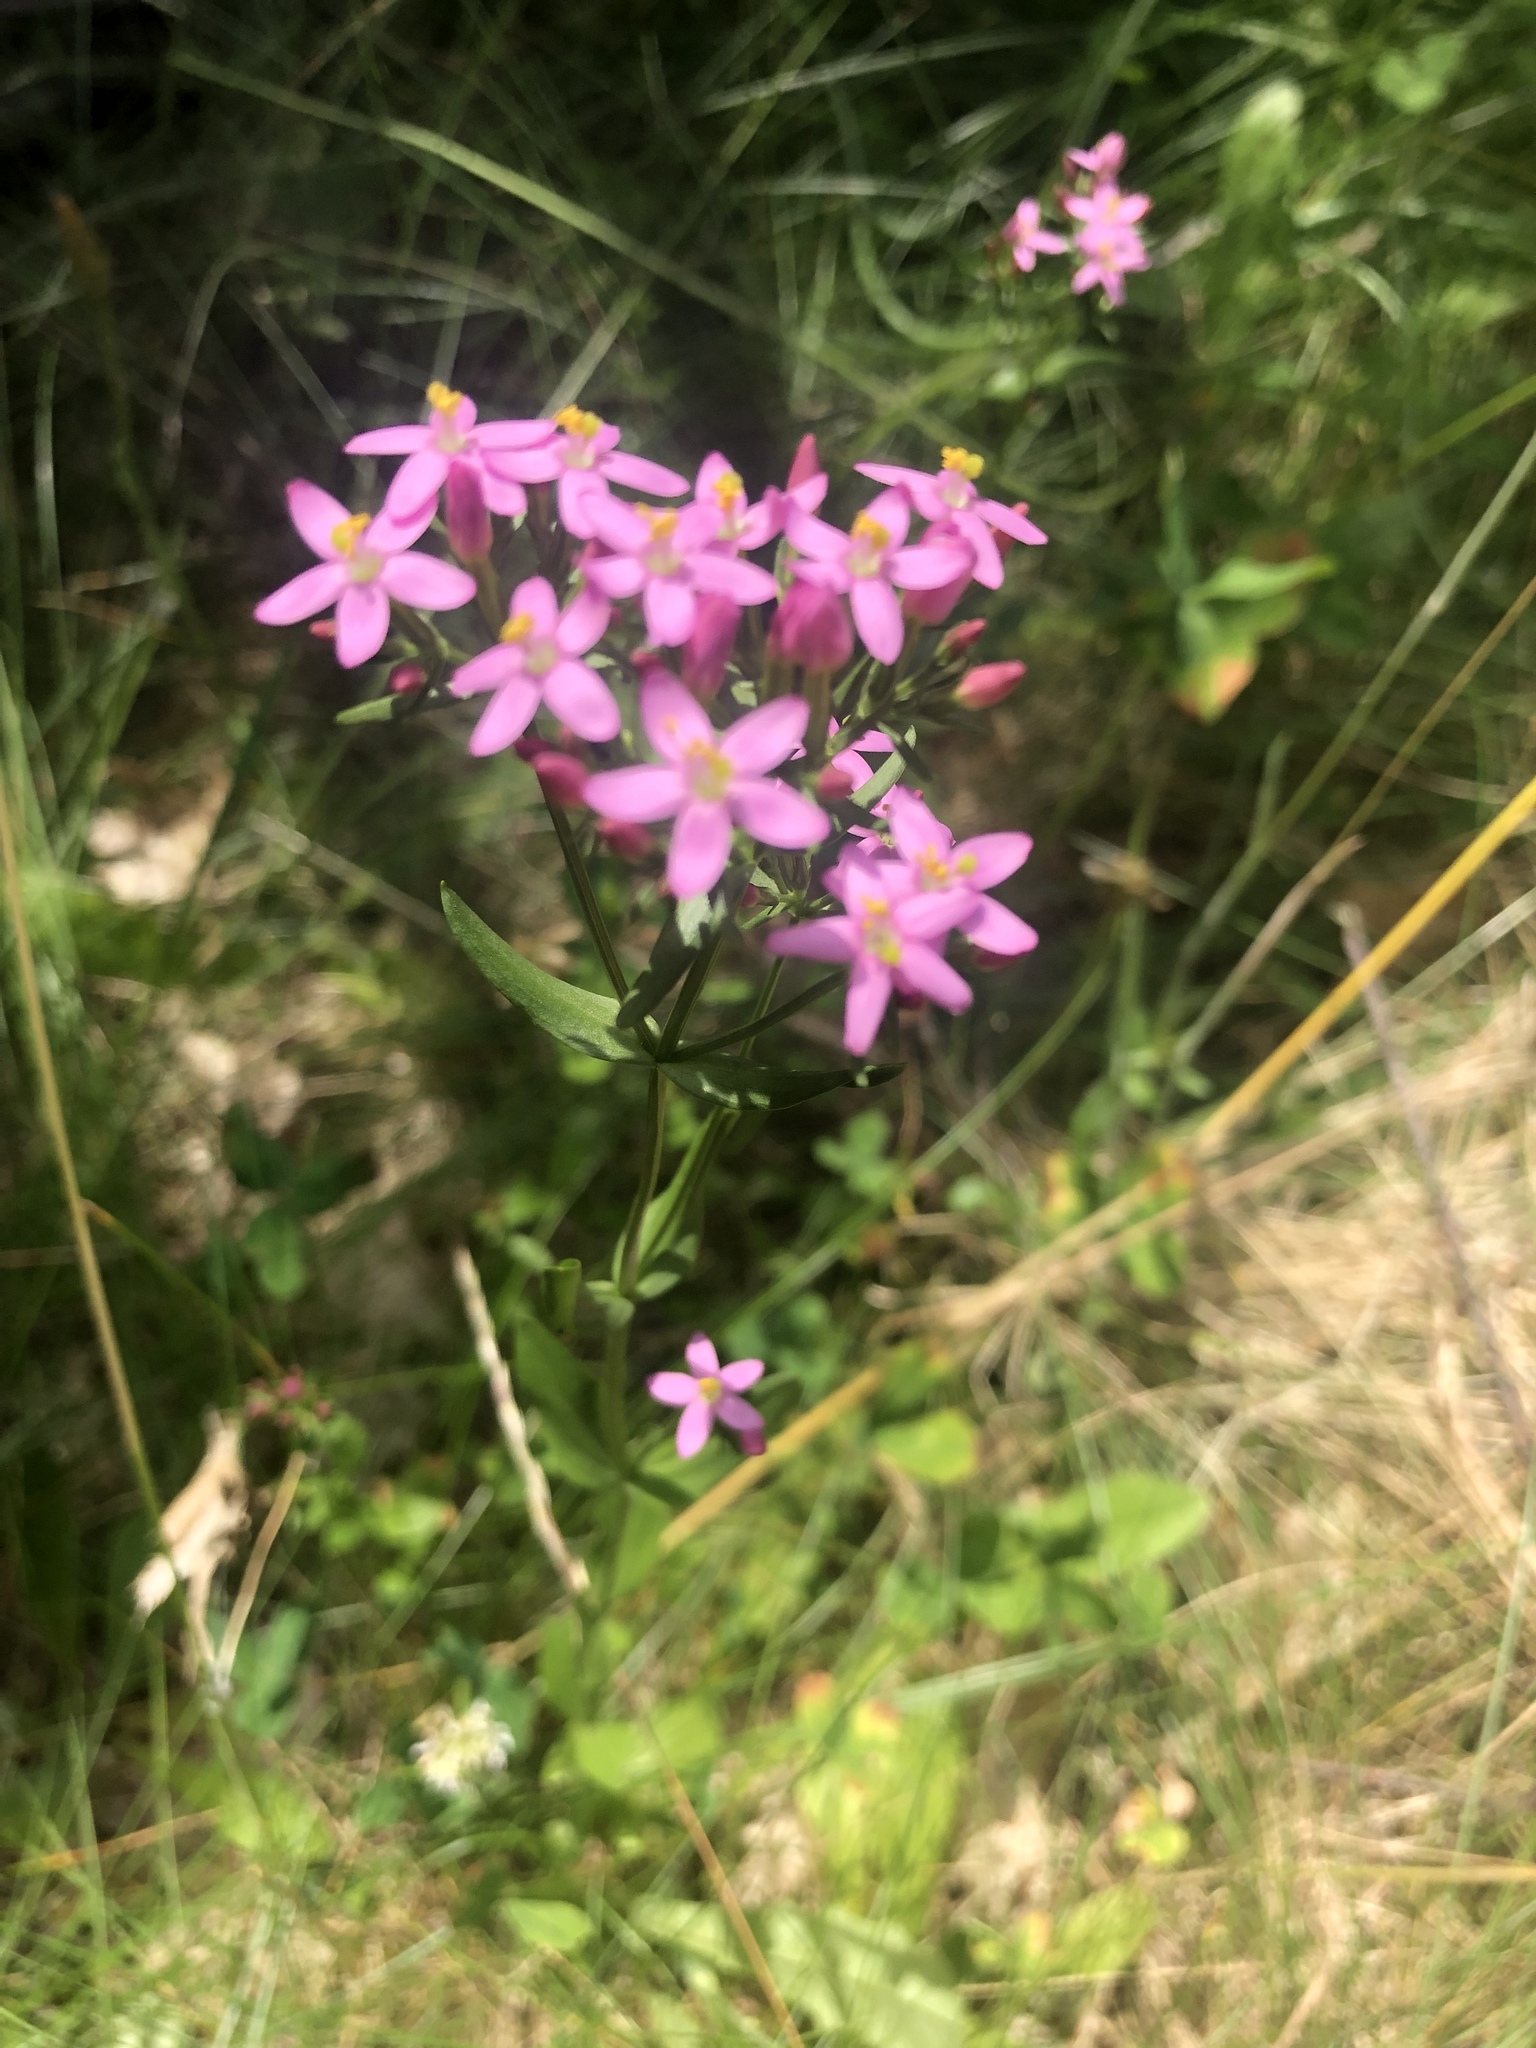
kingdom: Plantae
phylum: Tracheophyta
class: Magnoliopsida
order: Gentianales
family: Gentianaceae
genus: Zeltnera
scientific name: Zeltnera muhlenbergii
